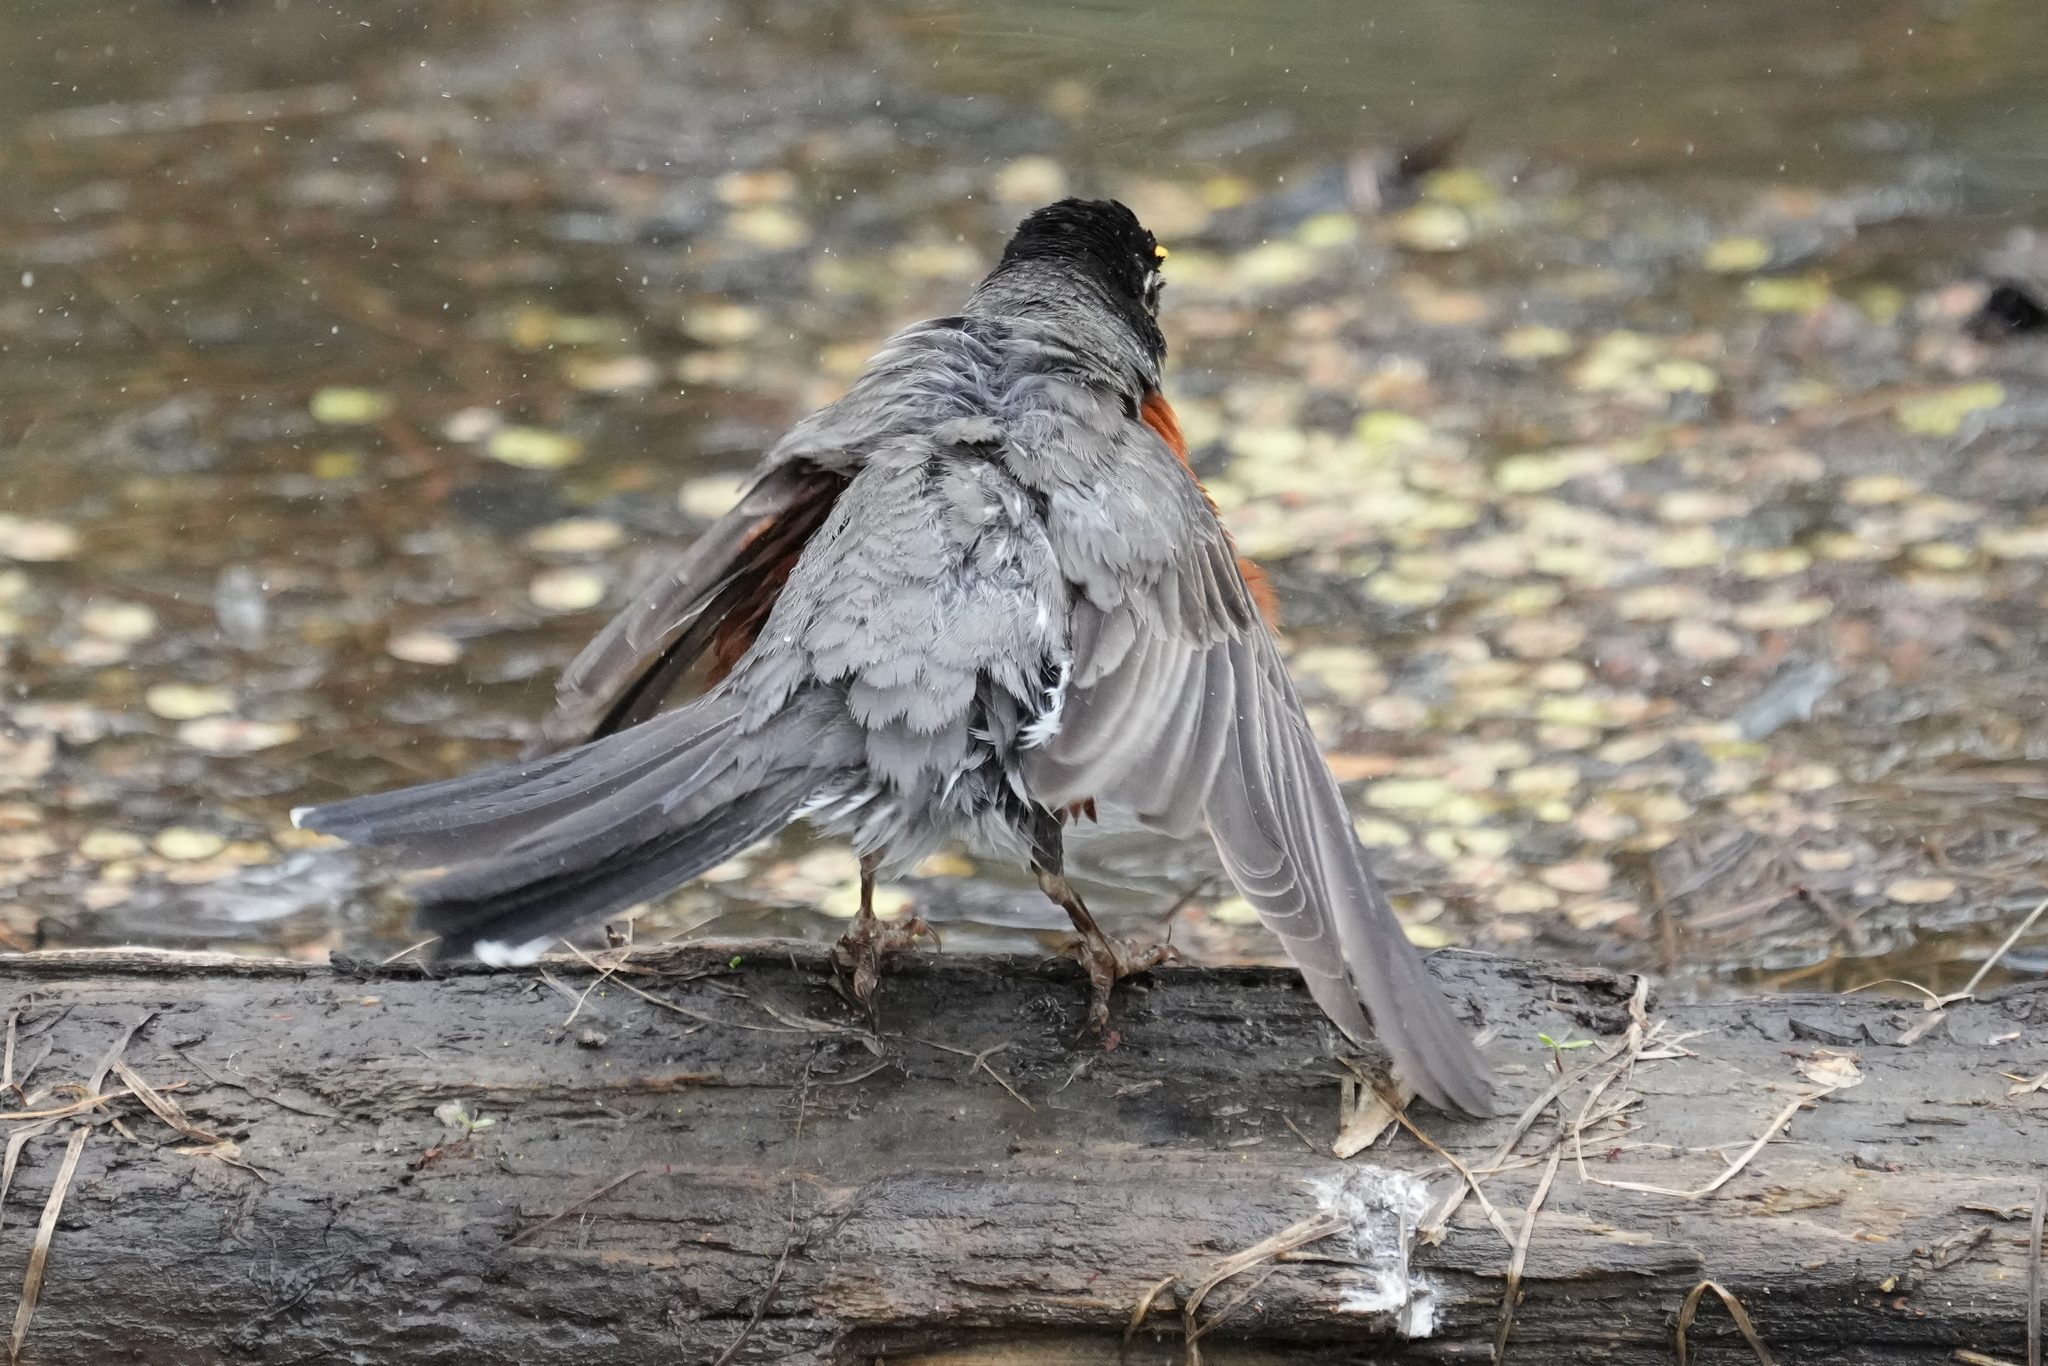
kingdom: Animalia
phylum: Chordata
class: Aves
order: Passeriformes
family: Turdidae
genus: Turdus
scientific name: Turdus migratorius
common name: American robin
